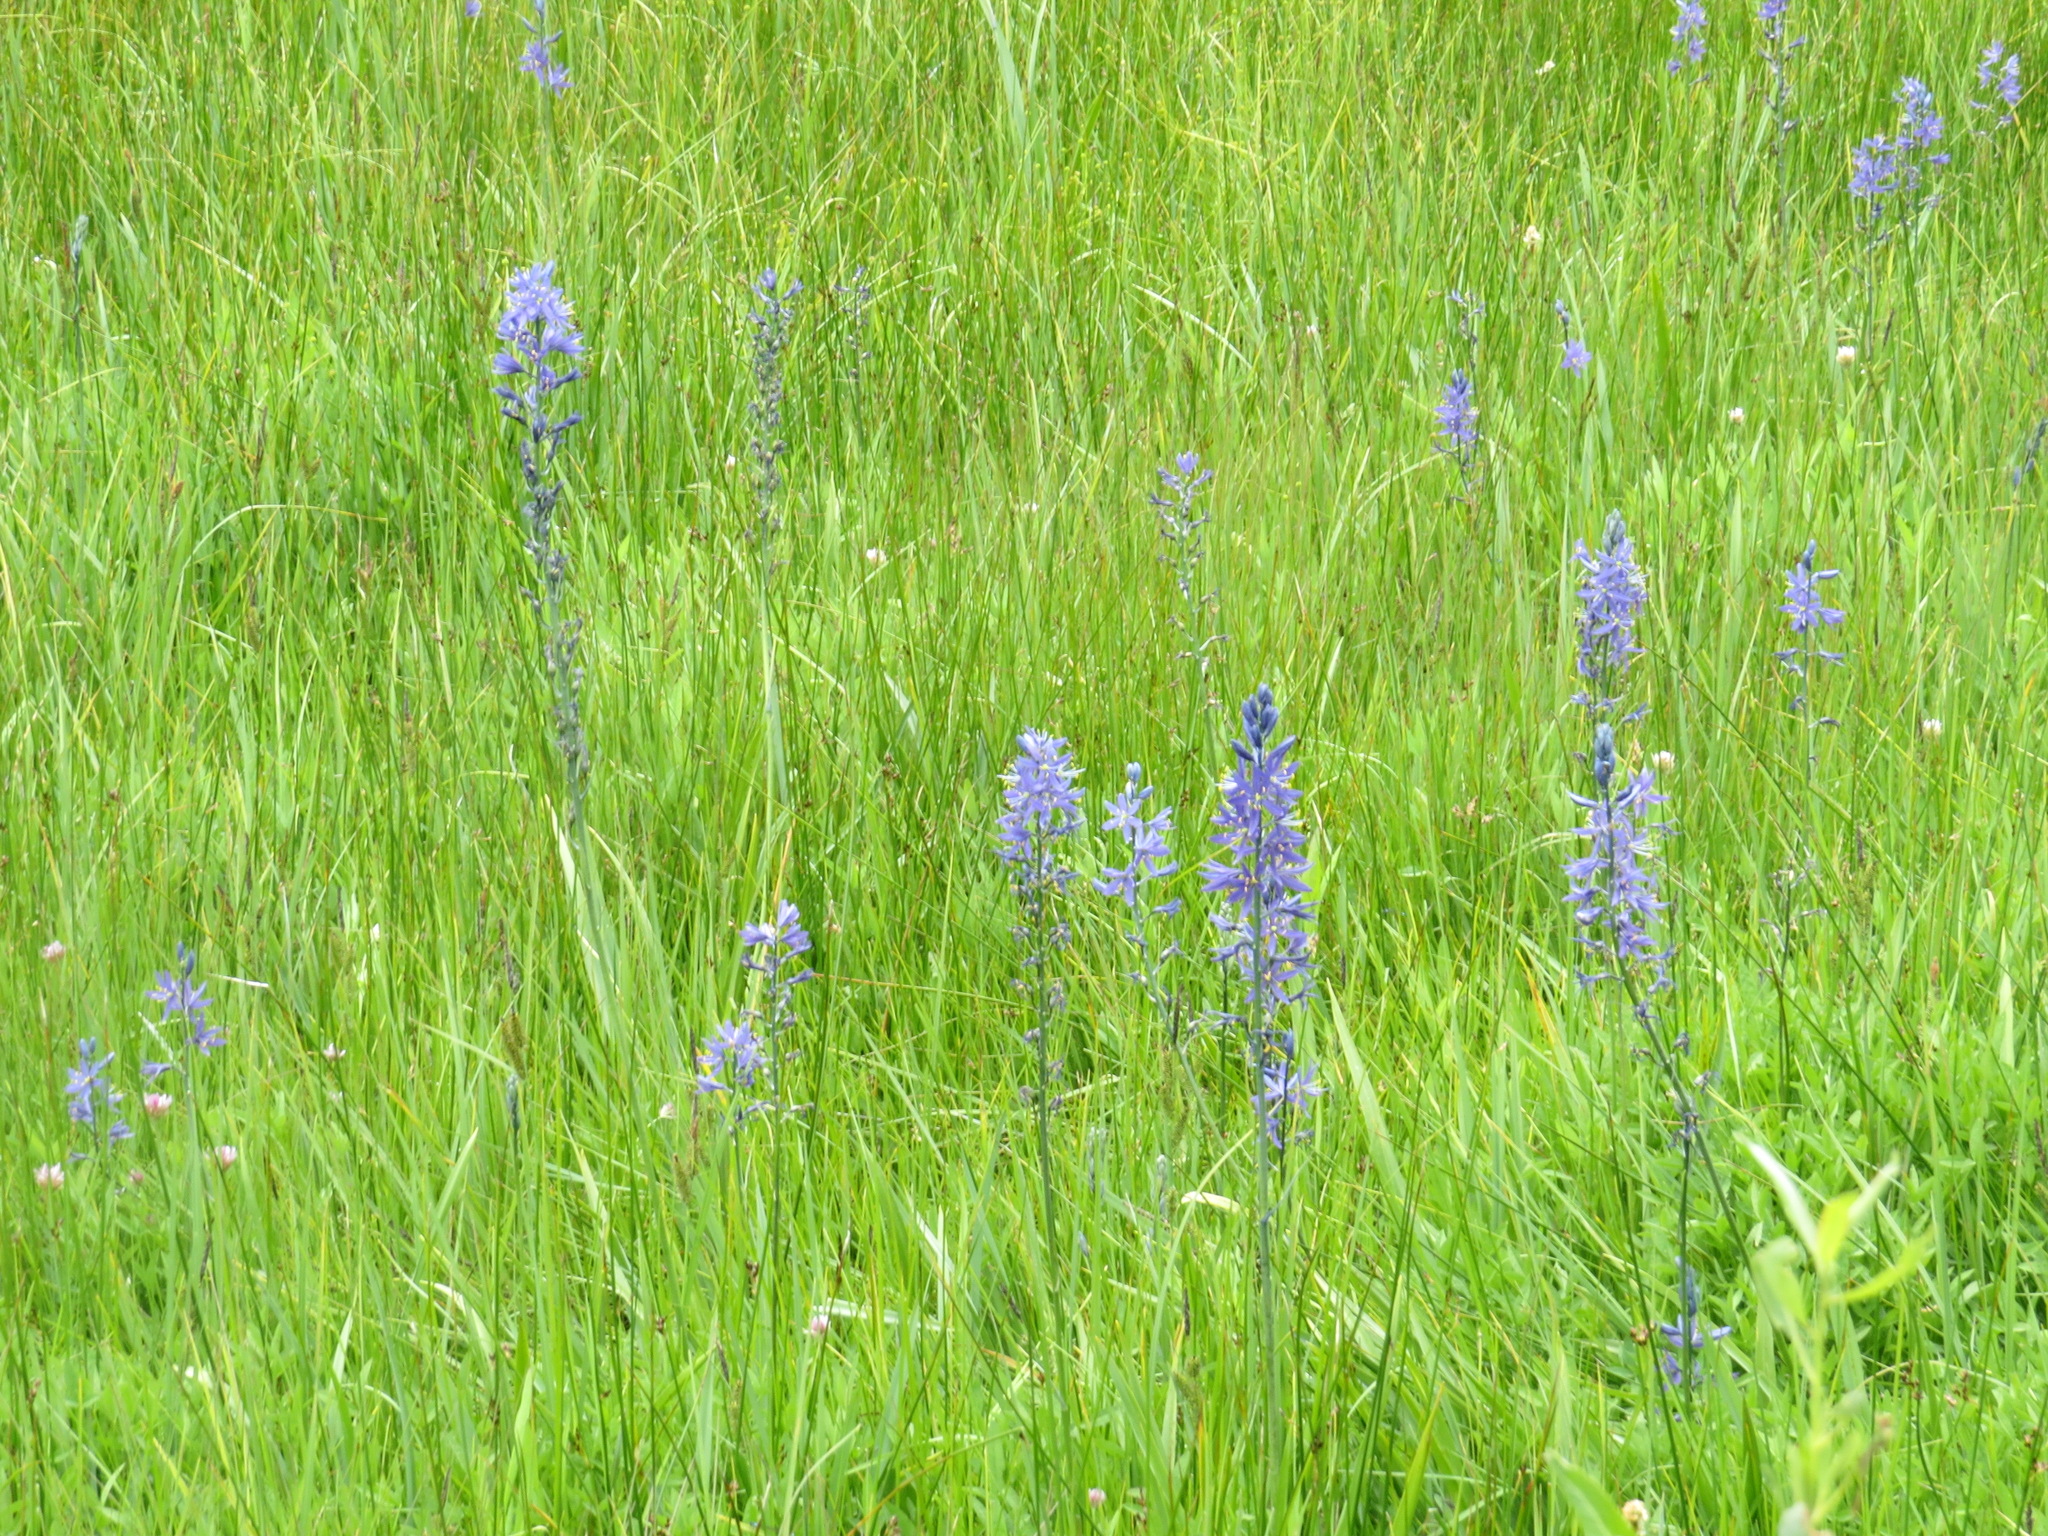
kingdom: Plantae
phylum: Tracheophyta
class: Liliopsida
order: Asparagales
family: Asparagaceae
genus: Camassia
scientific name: Camassia quamash
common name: Common camas
